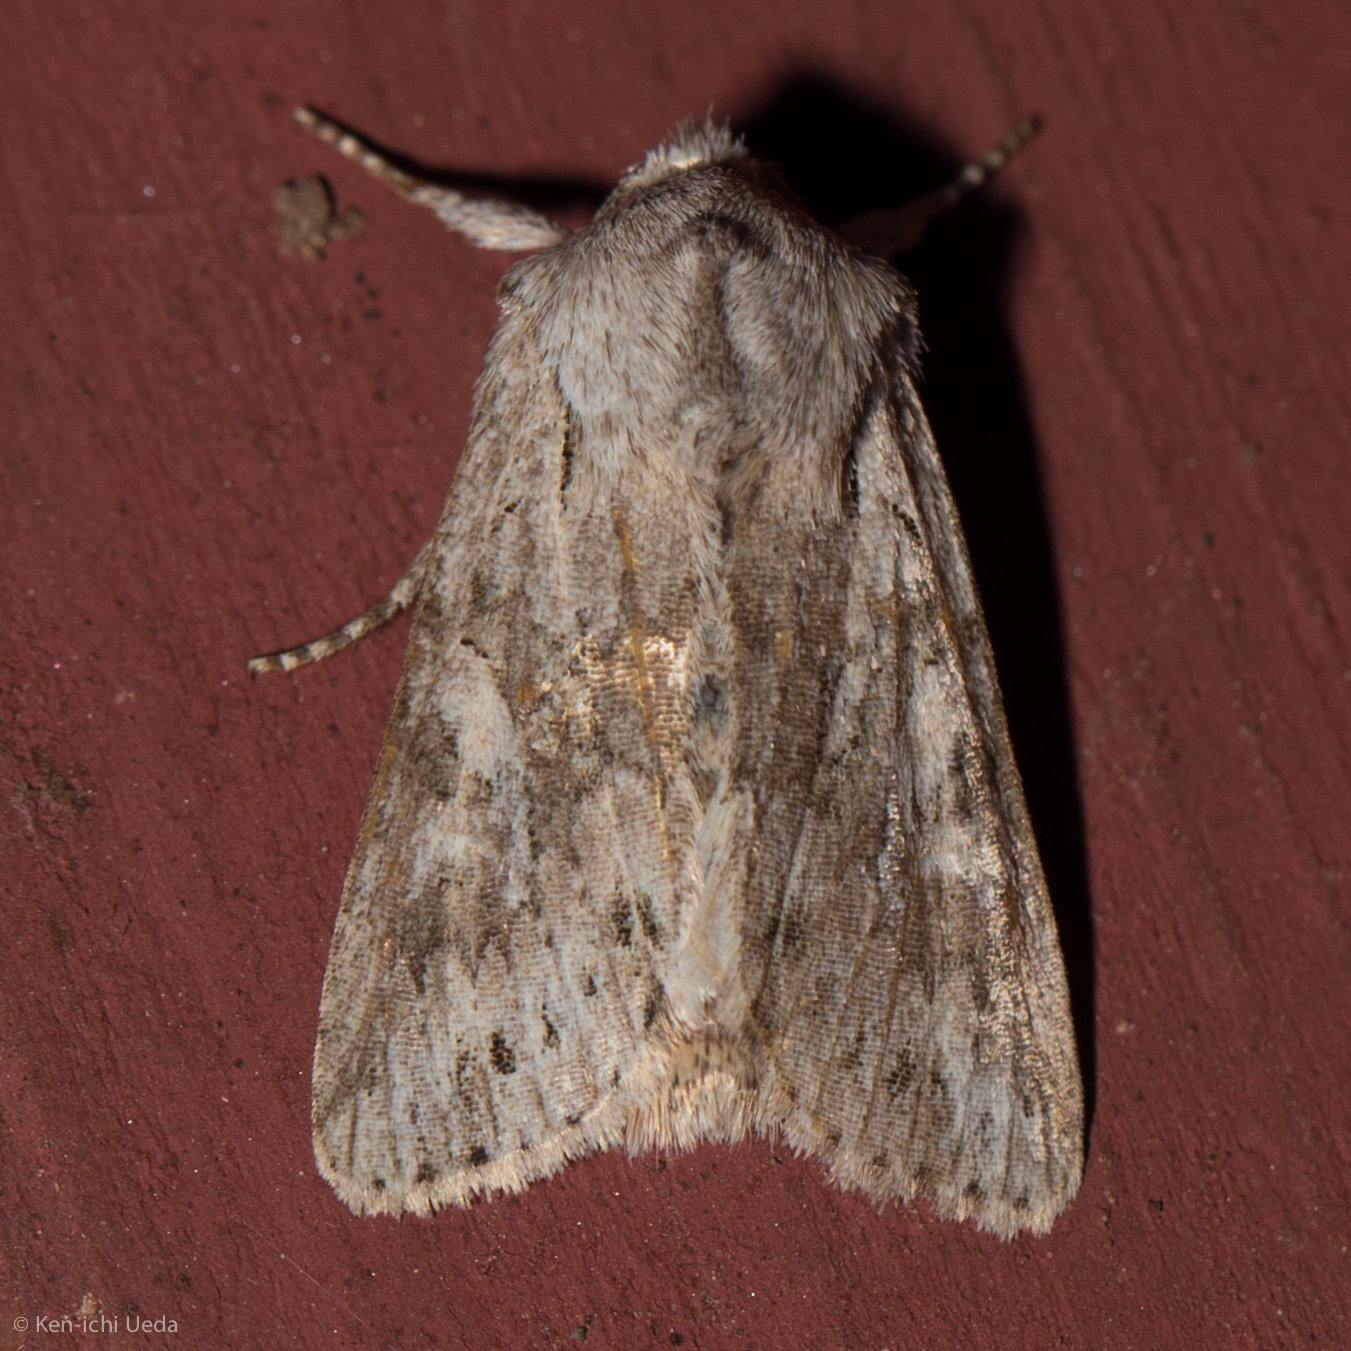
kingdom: Animalia
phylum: Arthropoda
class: Insecta
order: Lepidoptera
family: Noctuidae
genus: Lacinipolia
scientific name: Lacinipolia patalis
